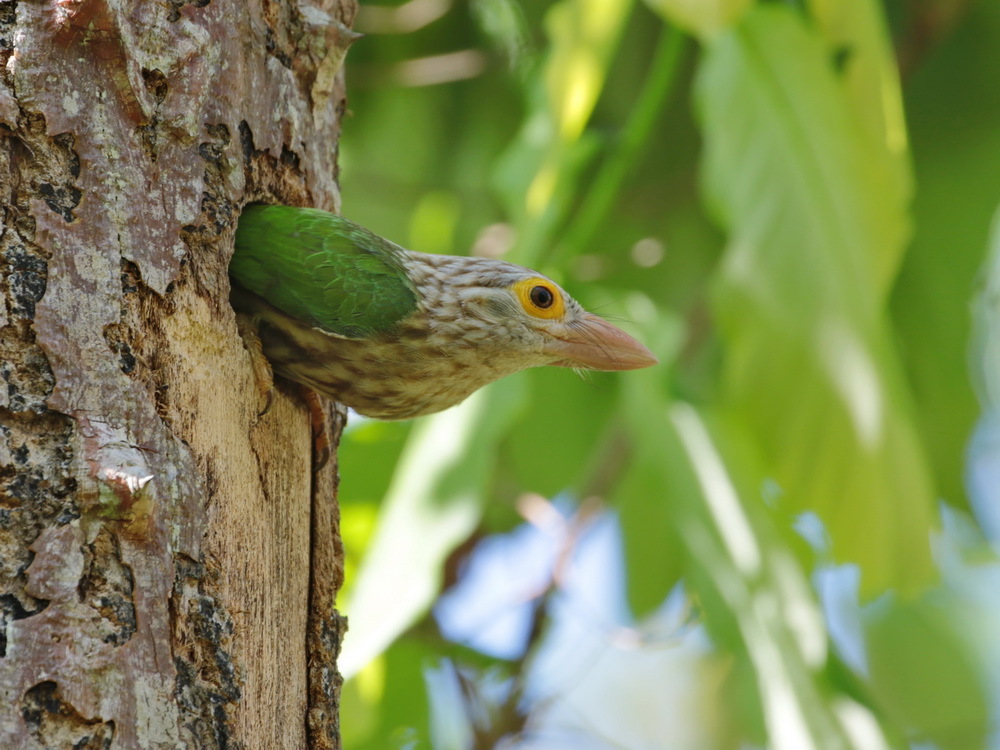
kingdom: Animalia
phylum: Chordata
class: Aves
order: Piciformes
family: Megalaimidae
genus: Psilopogon
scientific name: Psilopogon lineatus
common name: Lineated barbet
